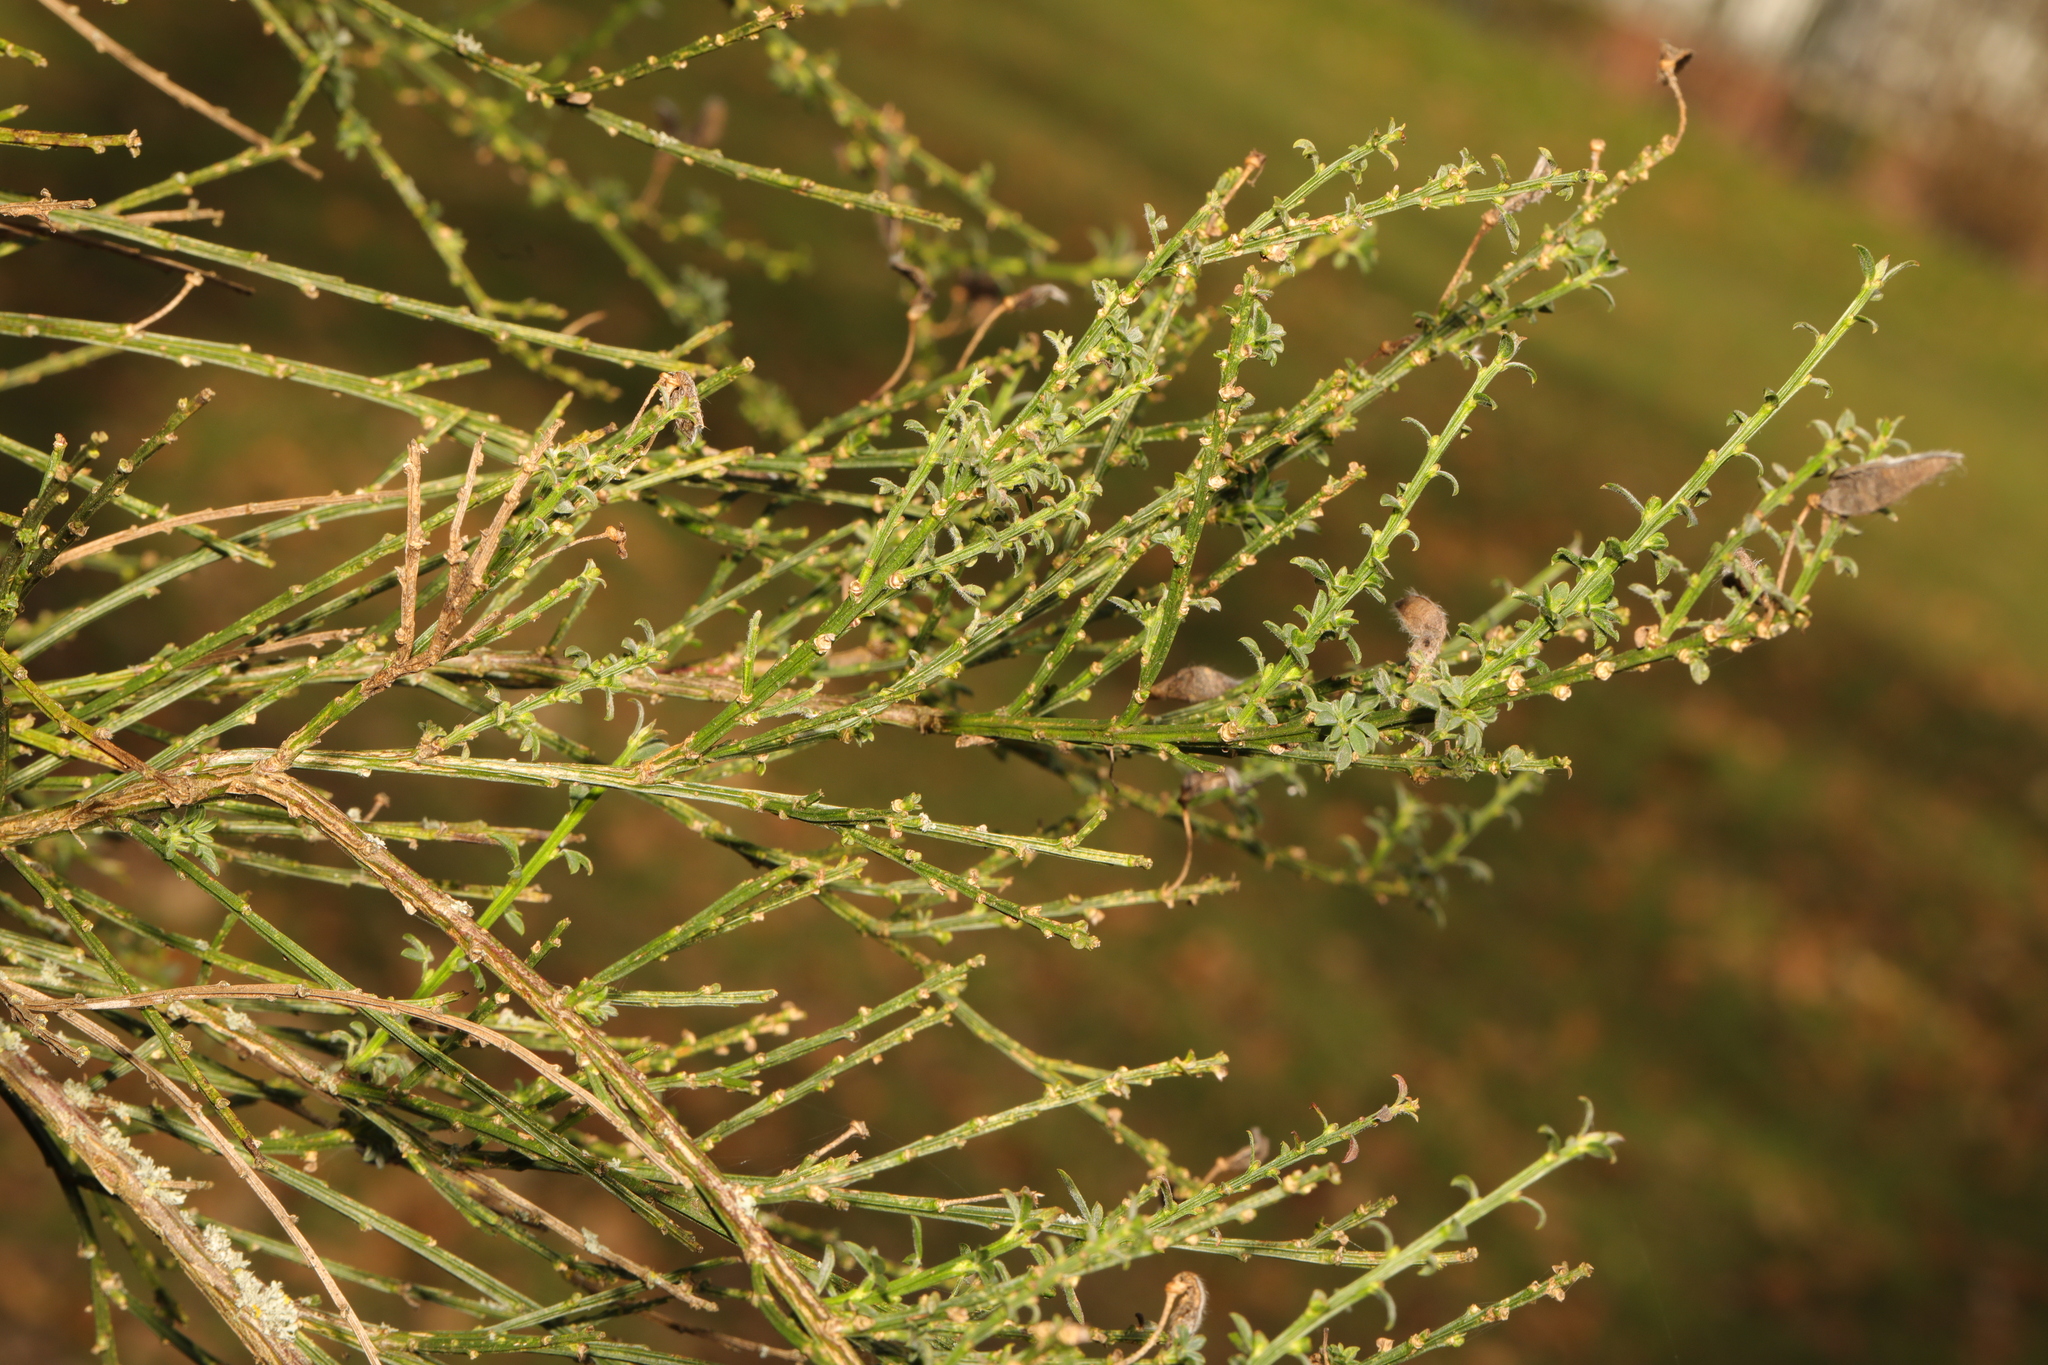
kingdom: Plantae
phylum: Tracheophyta
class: Magnoliopsida
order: Fabales
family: Fabaceae
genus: Cytisus
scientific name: Cytisus scoparius
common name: Scotch broom
